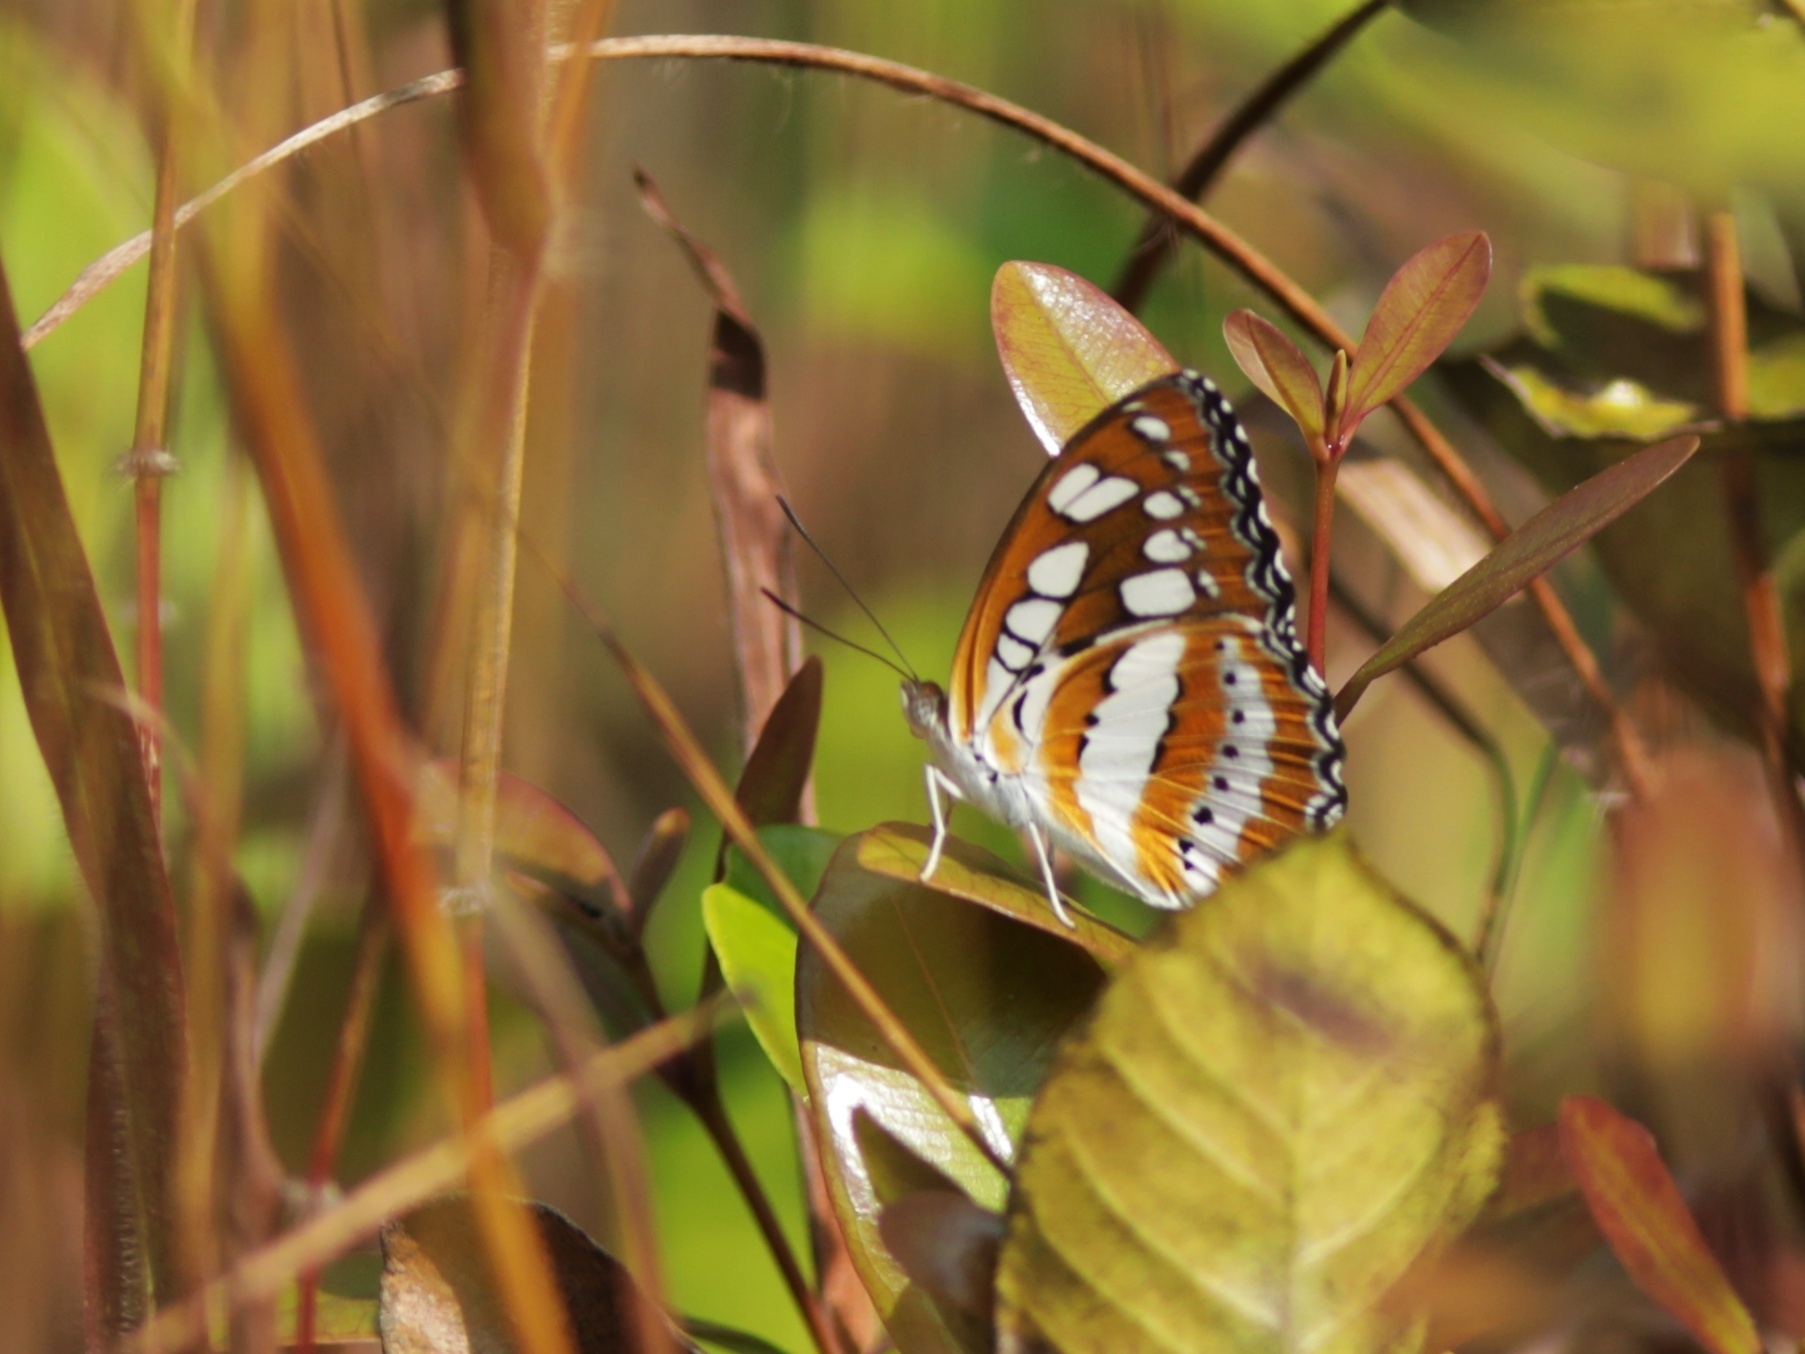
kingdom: Animalia
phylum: Arthropoda
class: Insecta
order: Lepidoptera
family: Nymphalidae
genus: Parathyma
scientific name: Parathyma perius
